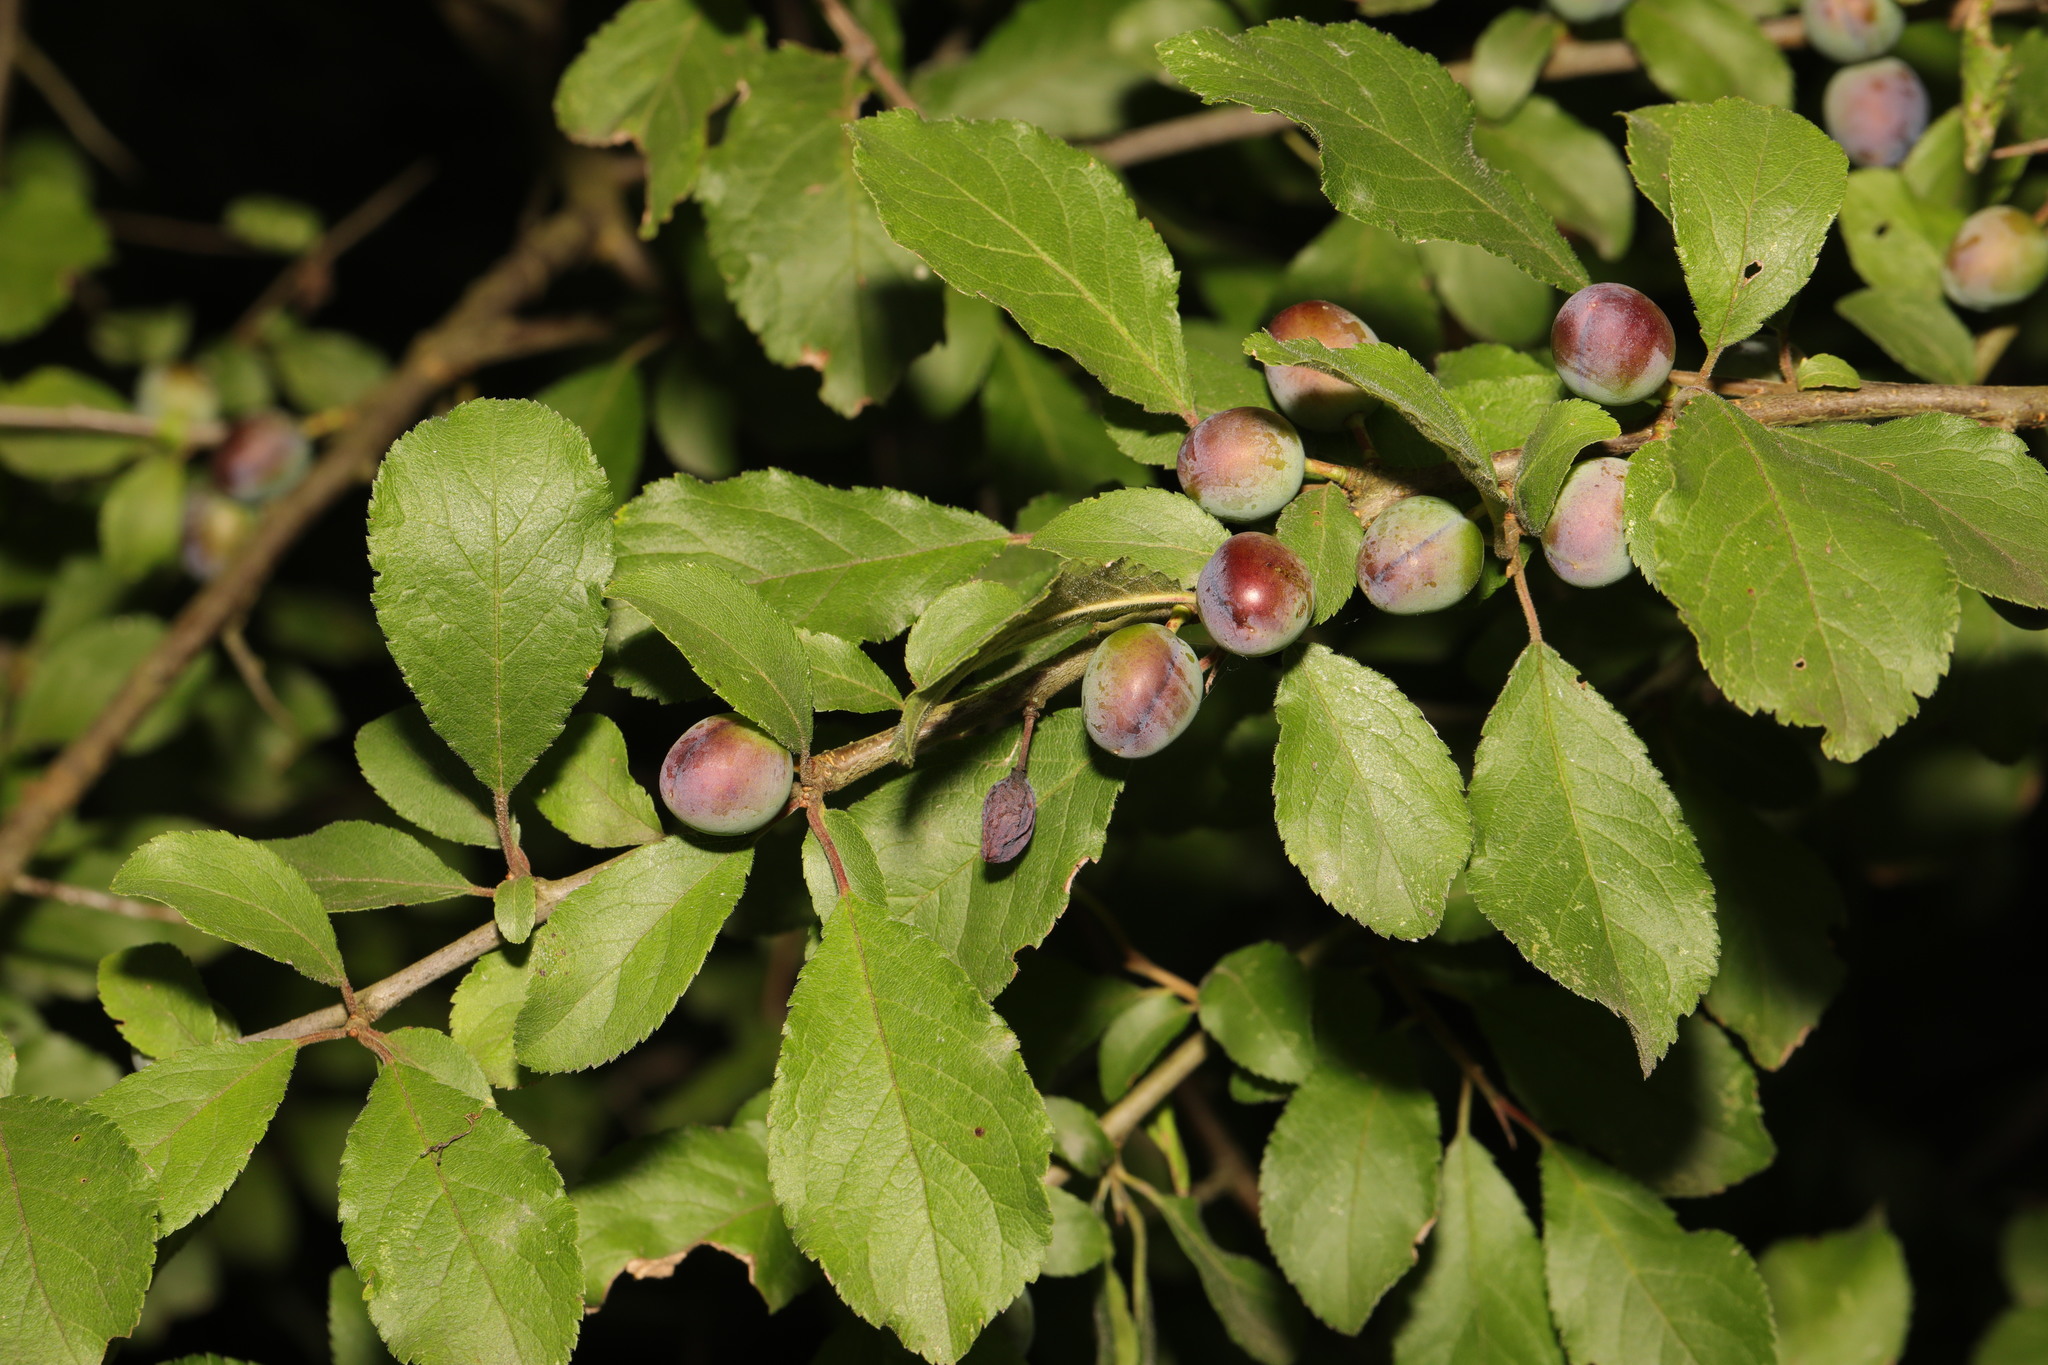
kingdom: Plantae
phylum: Tracheophyta
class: Magnoliopsida
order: Rosales
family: Rosaceae
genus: Prunus
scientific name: Prunus spinosa
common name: Blackthorn
